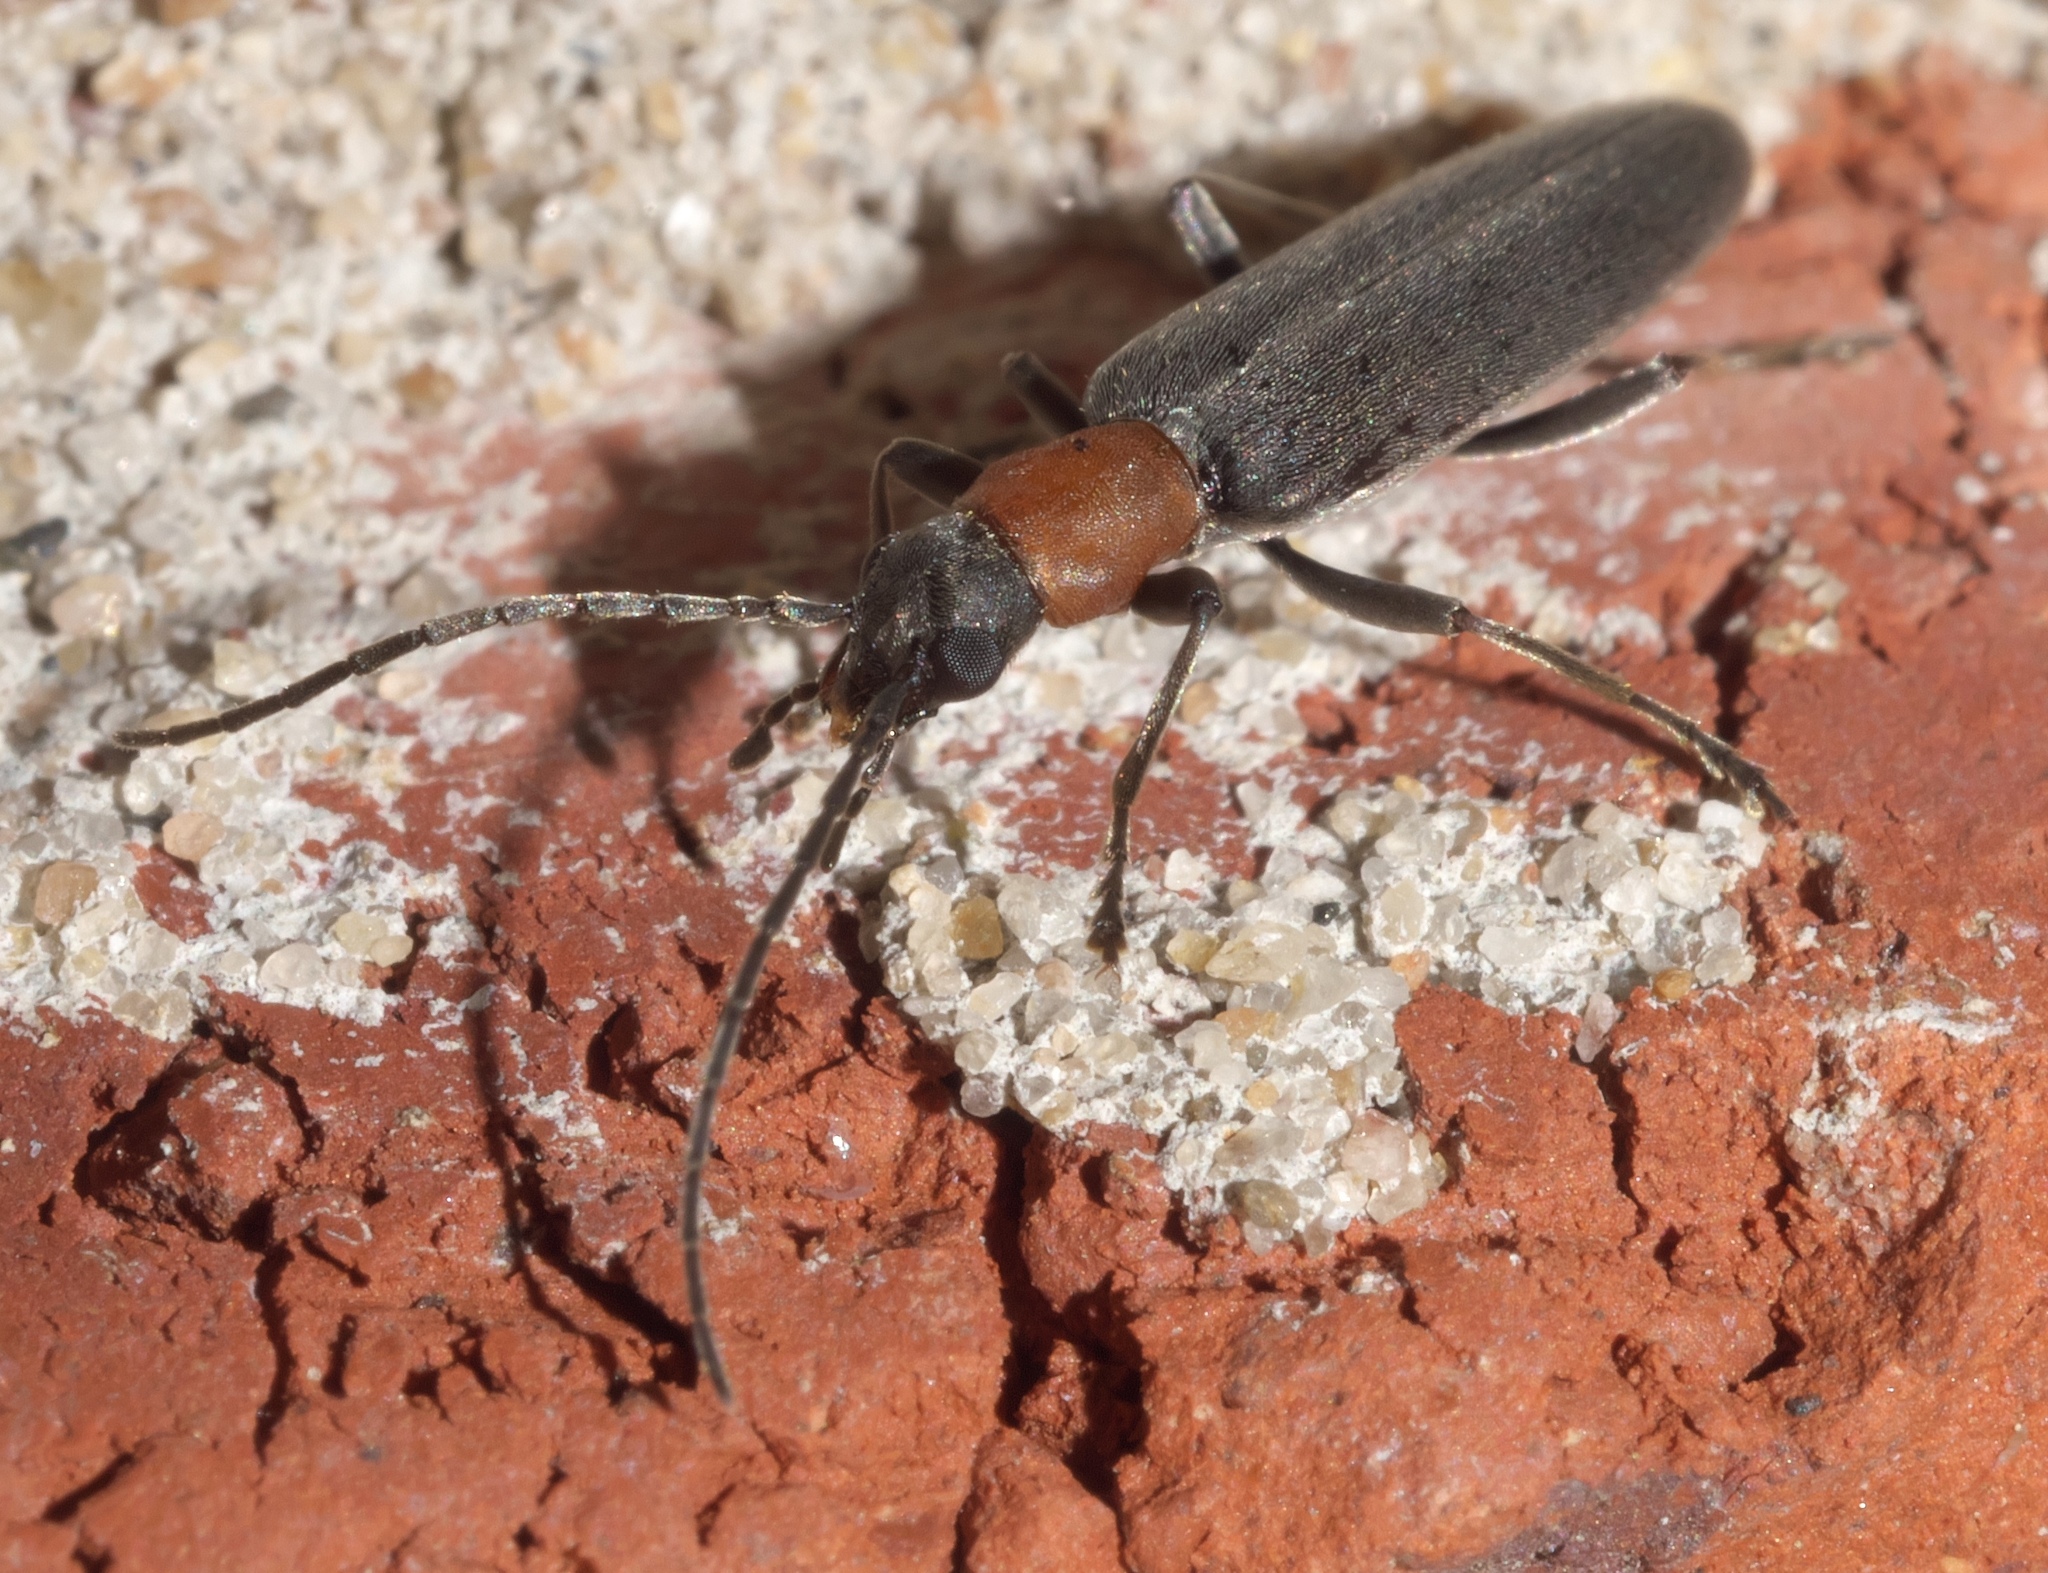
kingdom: Animalia
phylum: Arthropoda
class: Insecta
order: Coleoptera
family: Oedemeridae
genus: Oxycopis
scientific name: Oxycopis thoracica
